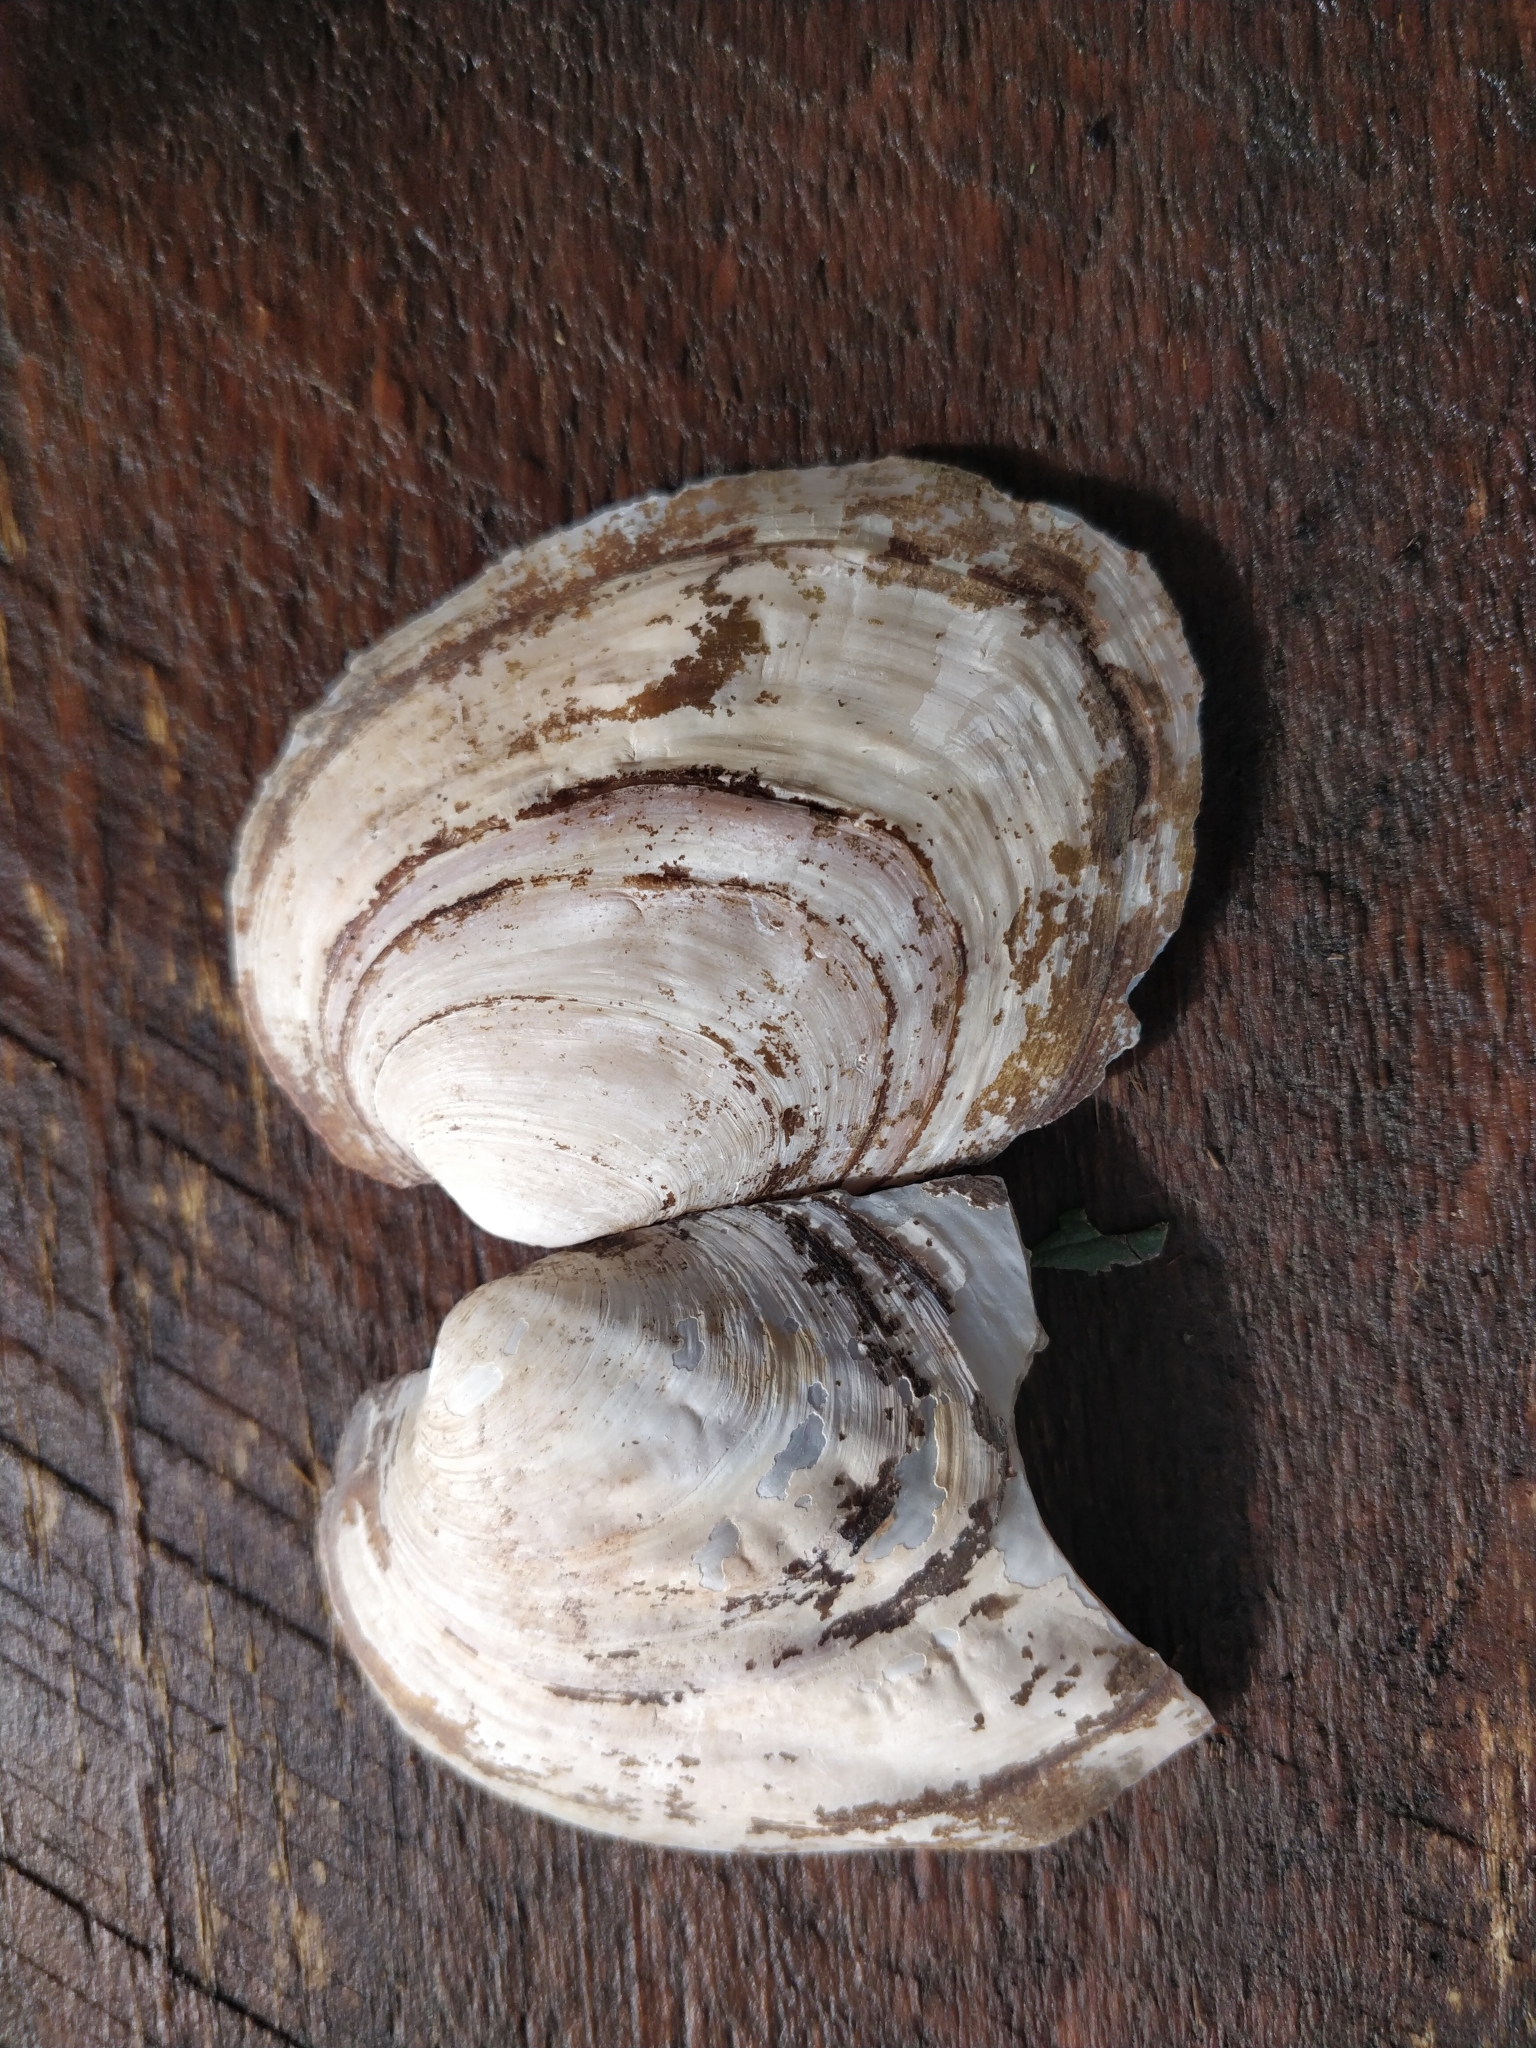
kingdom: Animalia
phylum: Mollusca
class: Bivalvia
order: Unionida
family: Unionidae
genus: Amblema
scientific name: Amblema plicata
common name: Threeridge
